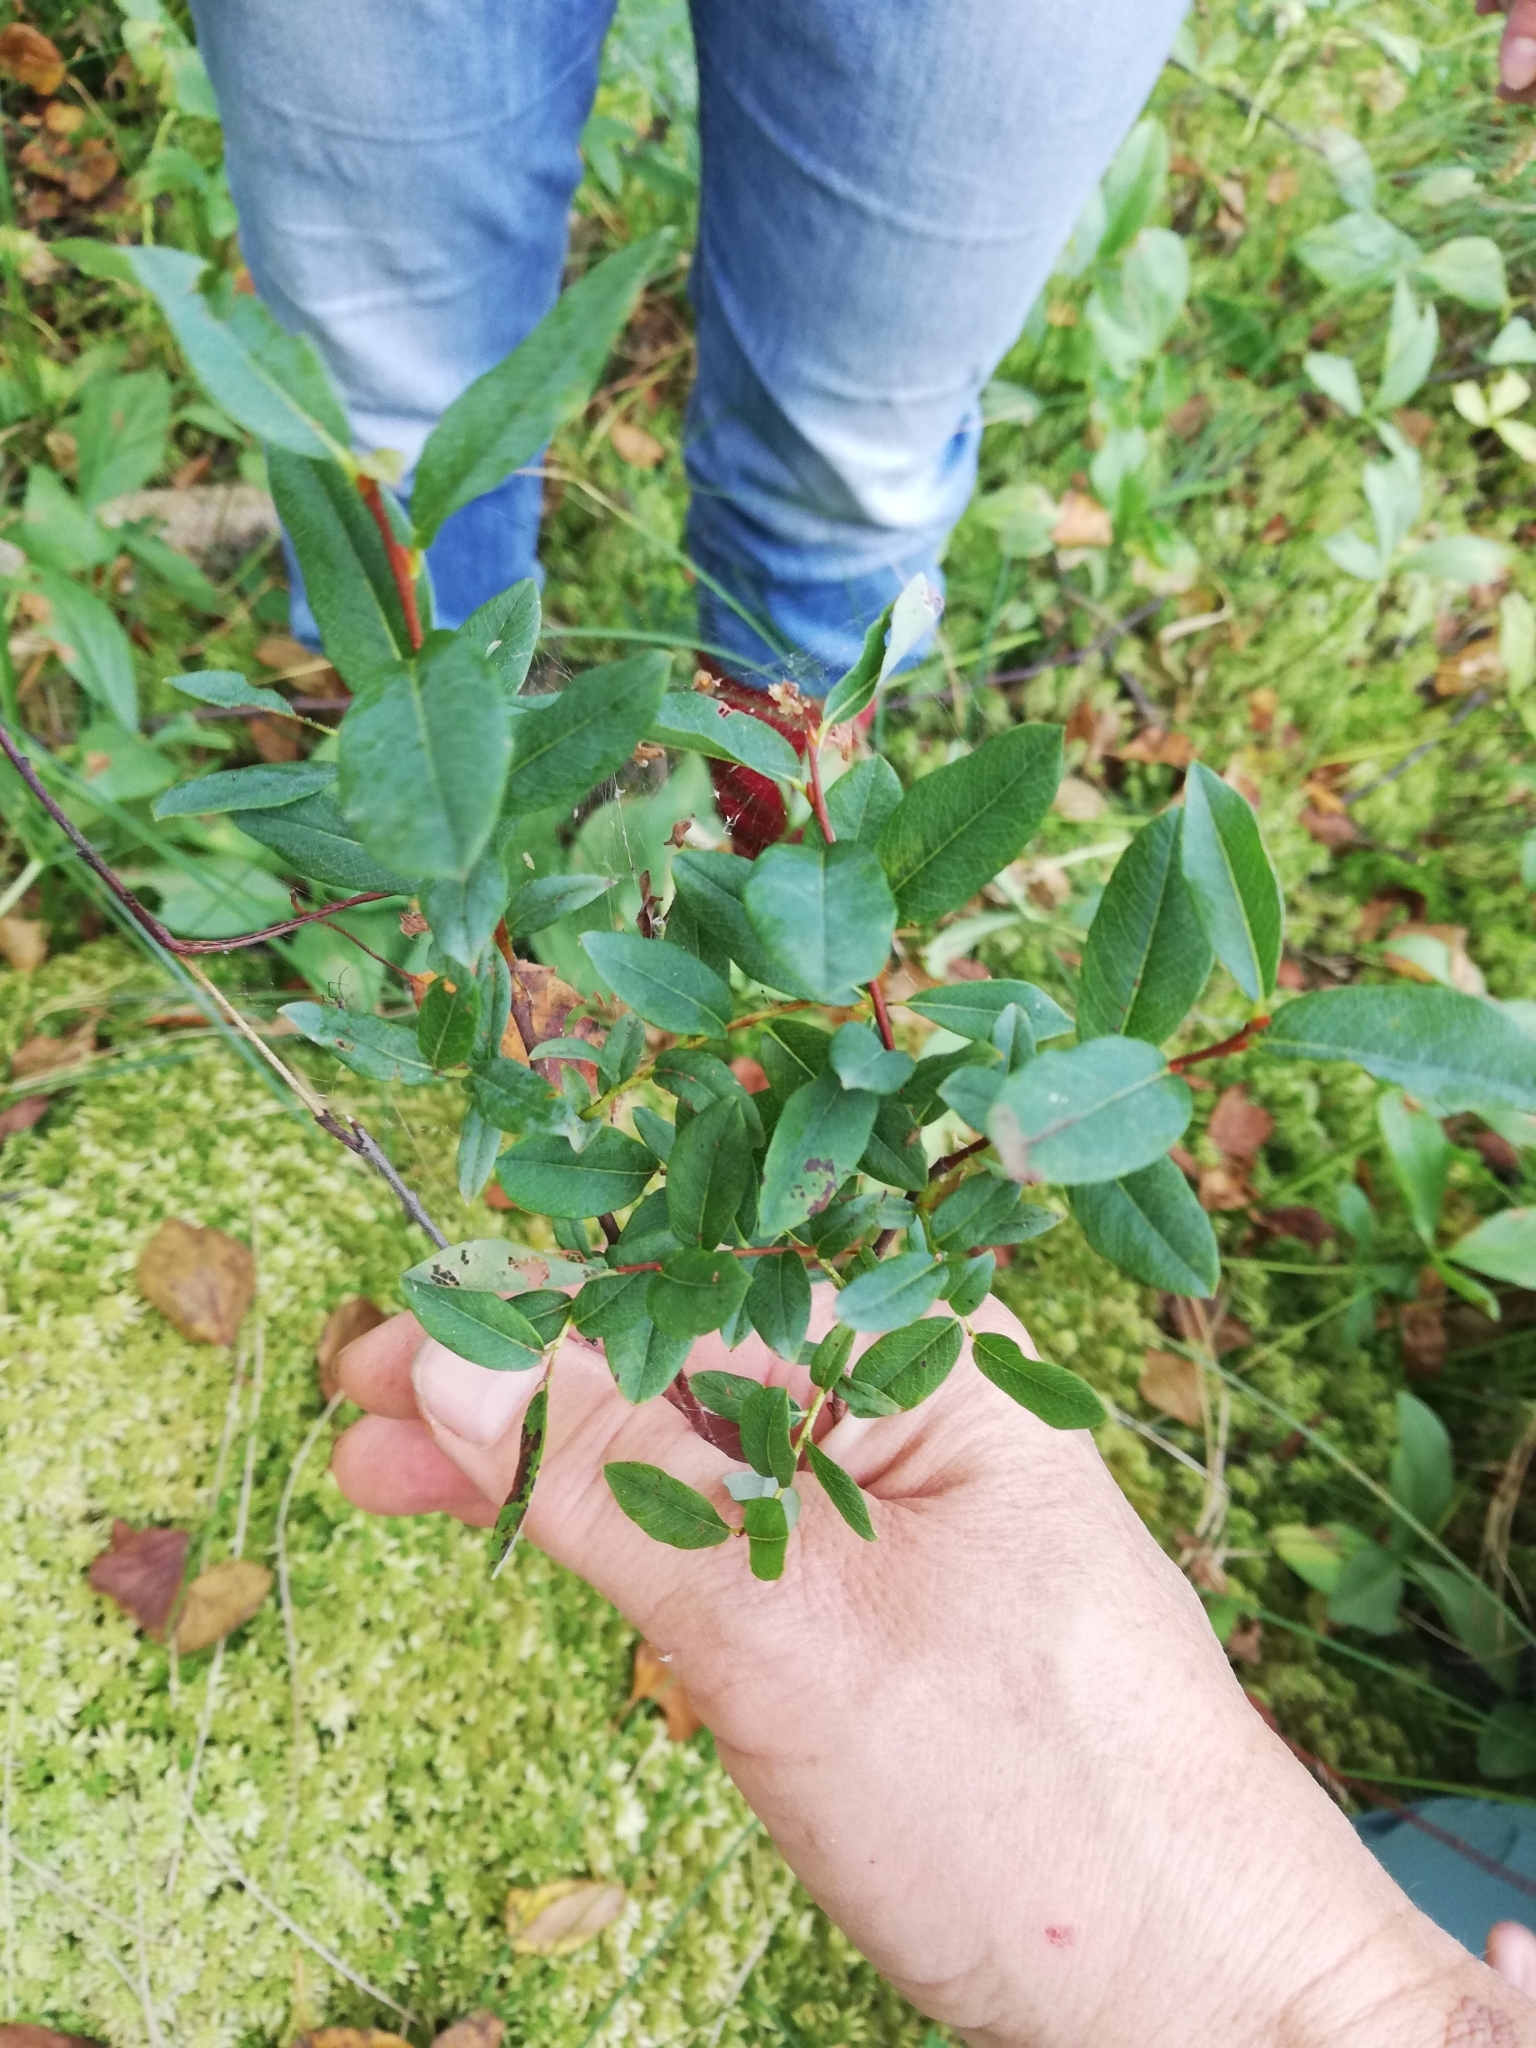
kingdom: Plantae
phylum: Tracheophyta
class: Magnoliopsida
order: Malpighiales
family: Salicaceae
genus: Salix
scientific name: Salix myrtilloides
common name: Myrtle-leaved willow
